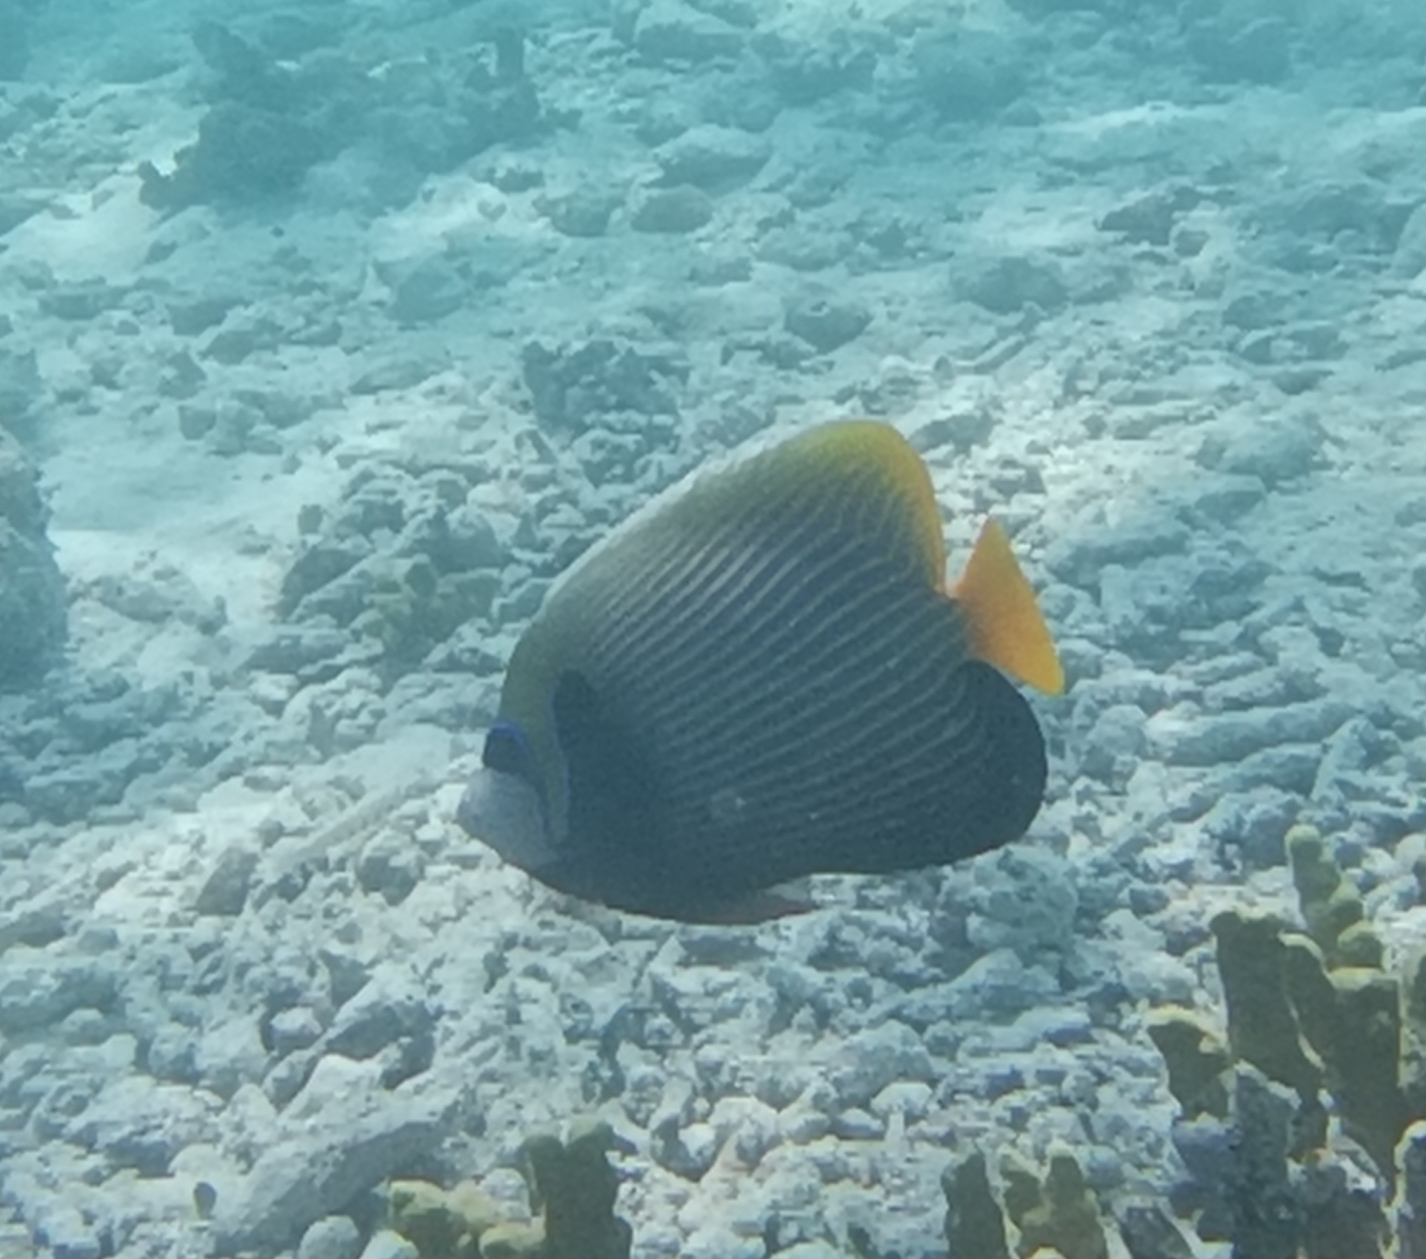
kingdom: Animalia
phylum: Chordata
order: Perciformes
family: Pomacanthidae
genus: Pomacanthus
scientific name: Pomacanthus imperator
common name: Emperor angelfish
